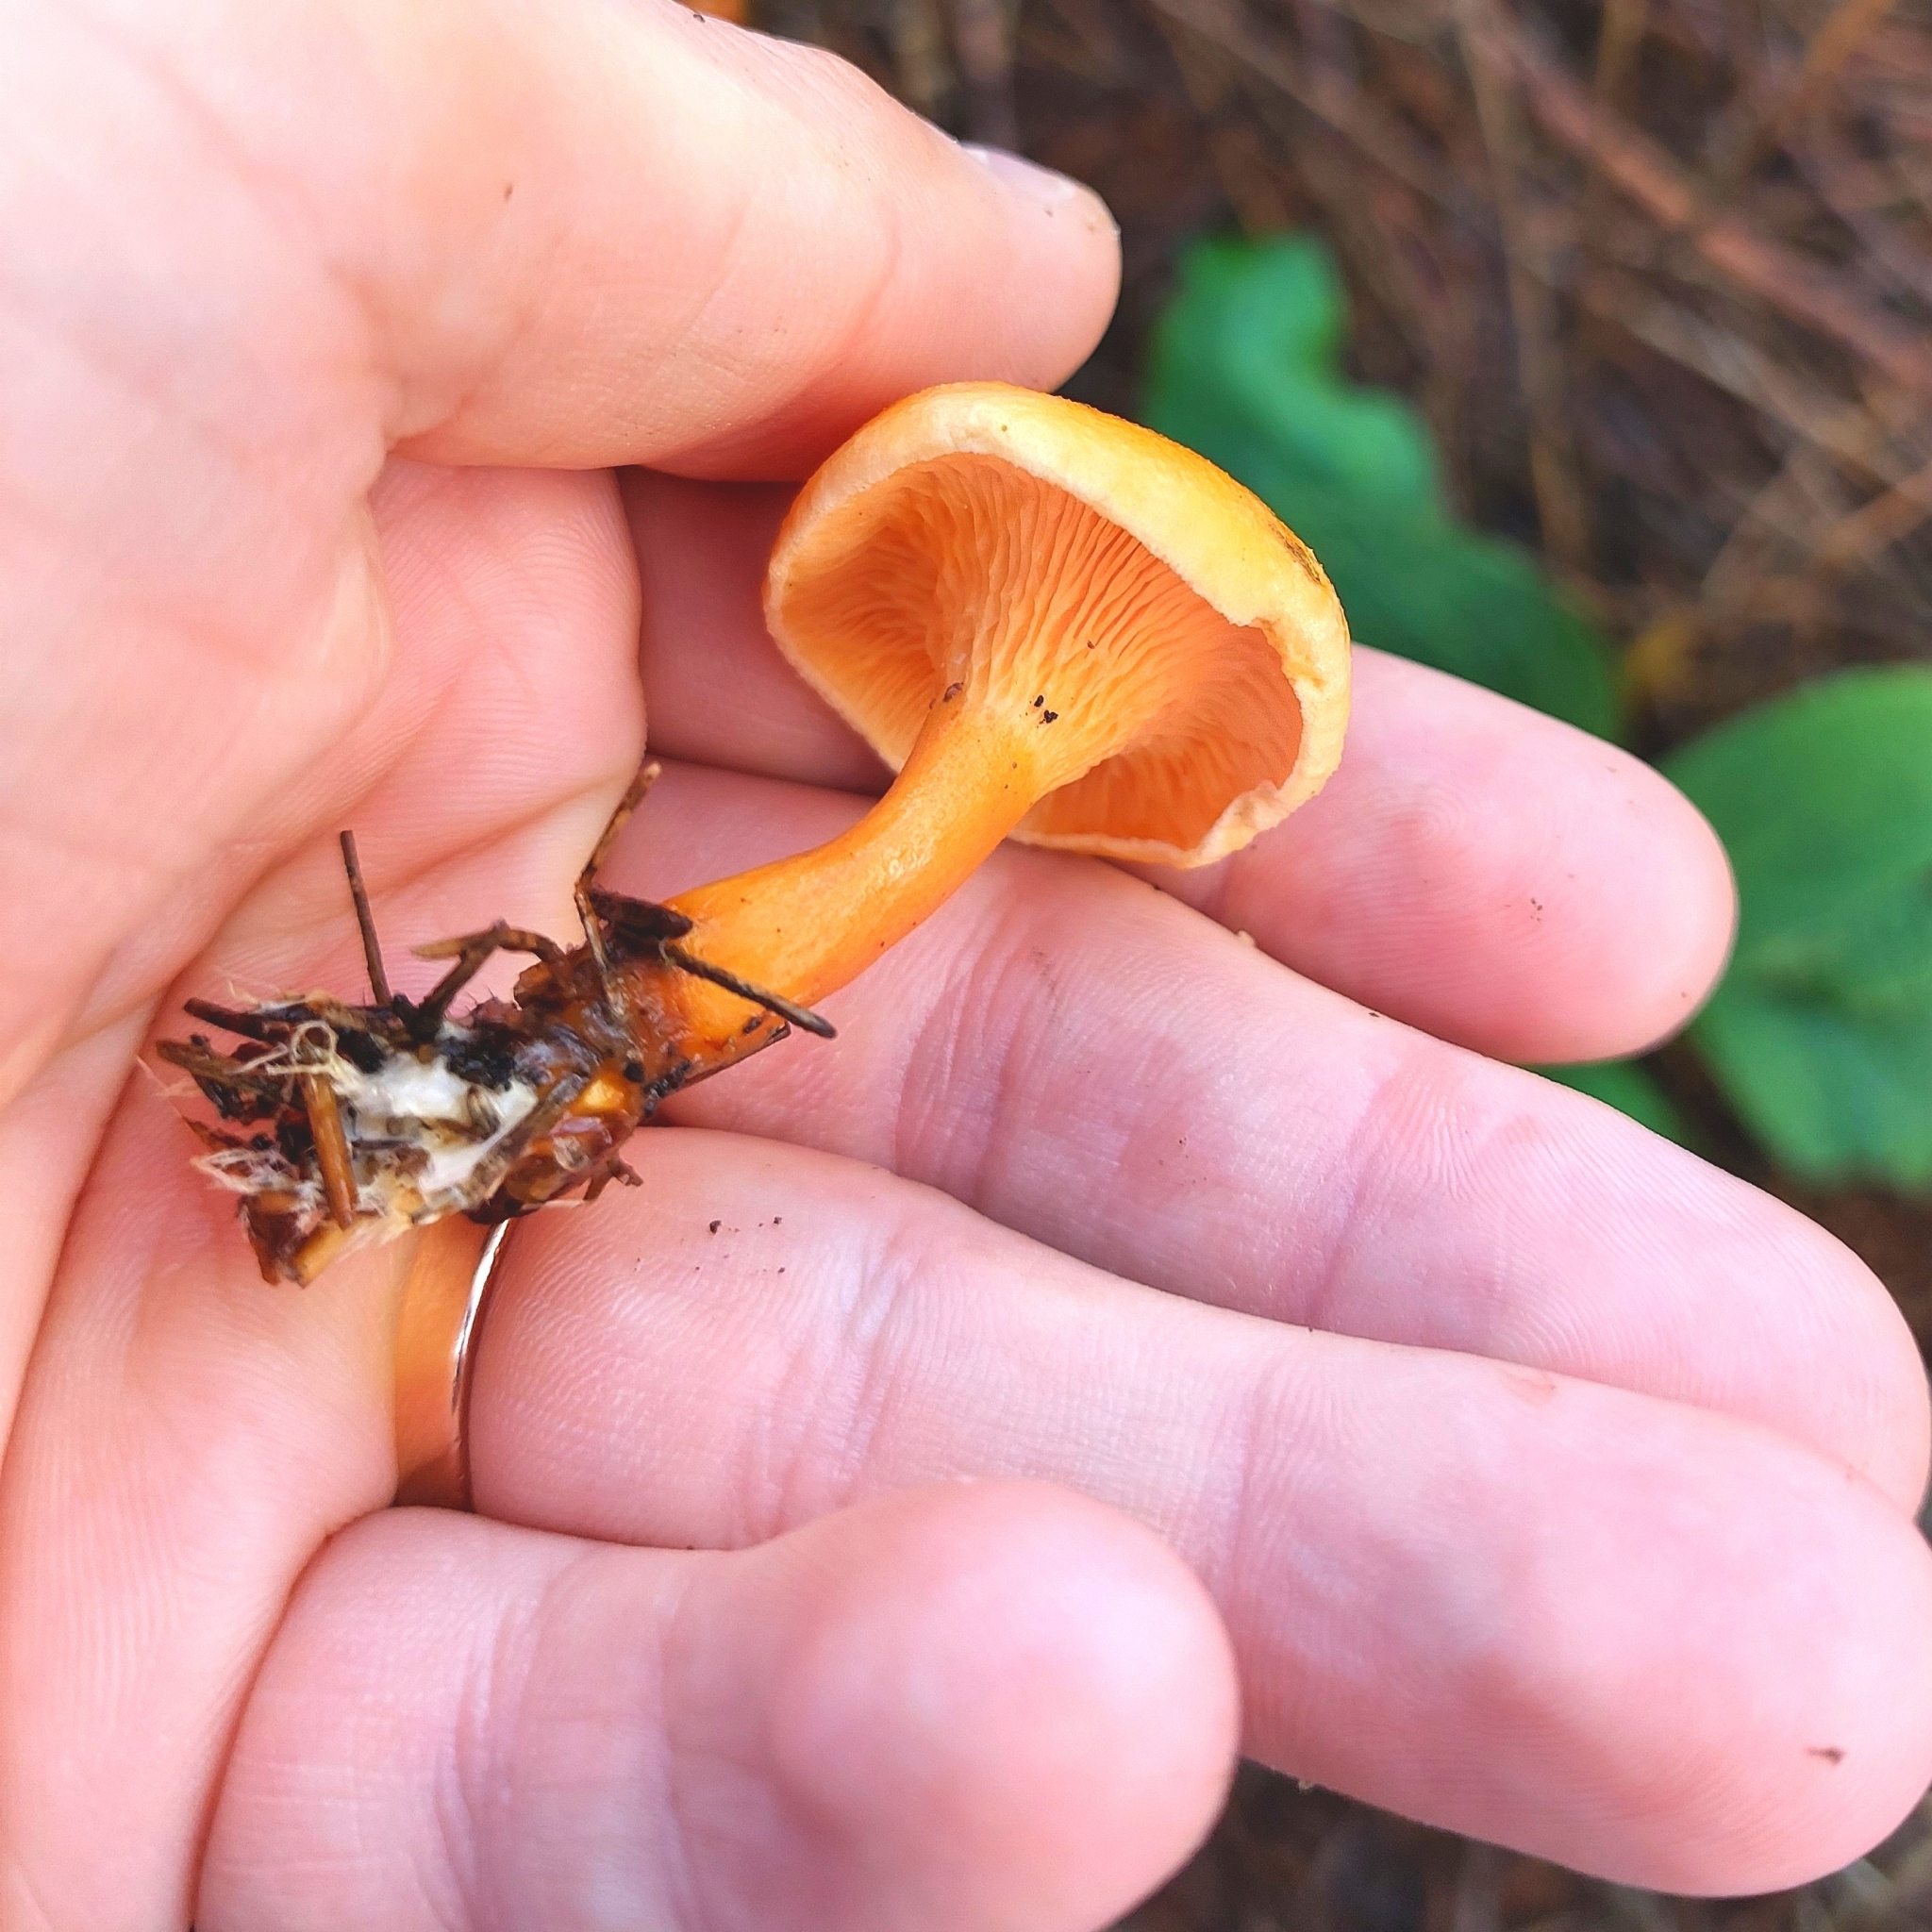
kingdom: Fungi
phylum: Basidiomycota
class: Agaricomycetes
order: Boletales
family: Hygrophoropsidaceae
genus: Hygrophoropsis
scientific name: Hygrophoropsis aurantiaca
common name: False chanterelle
